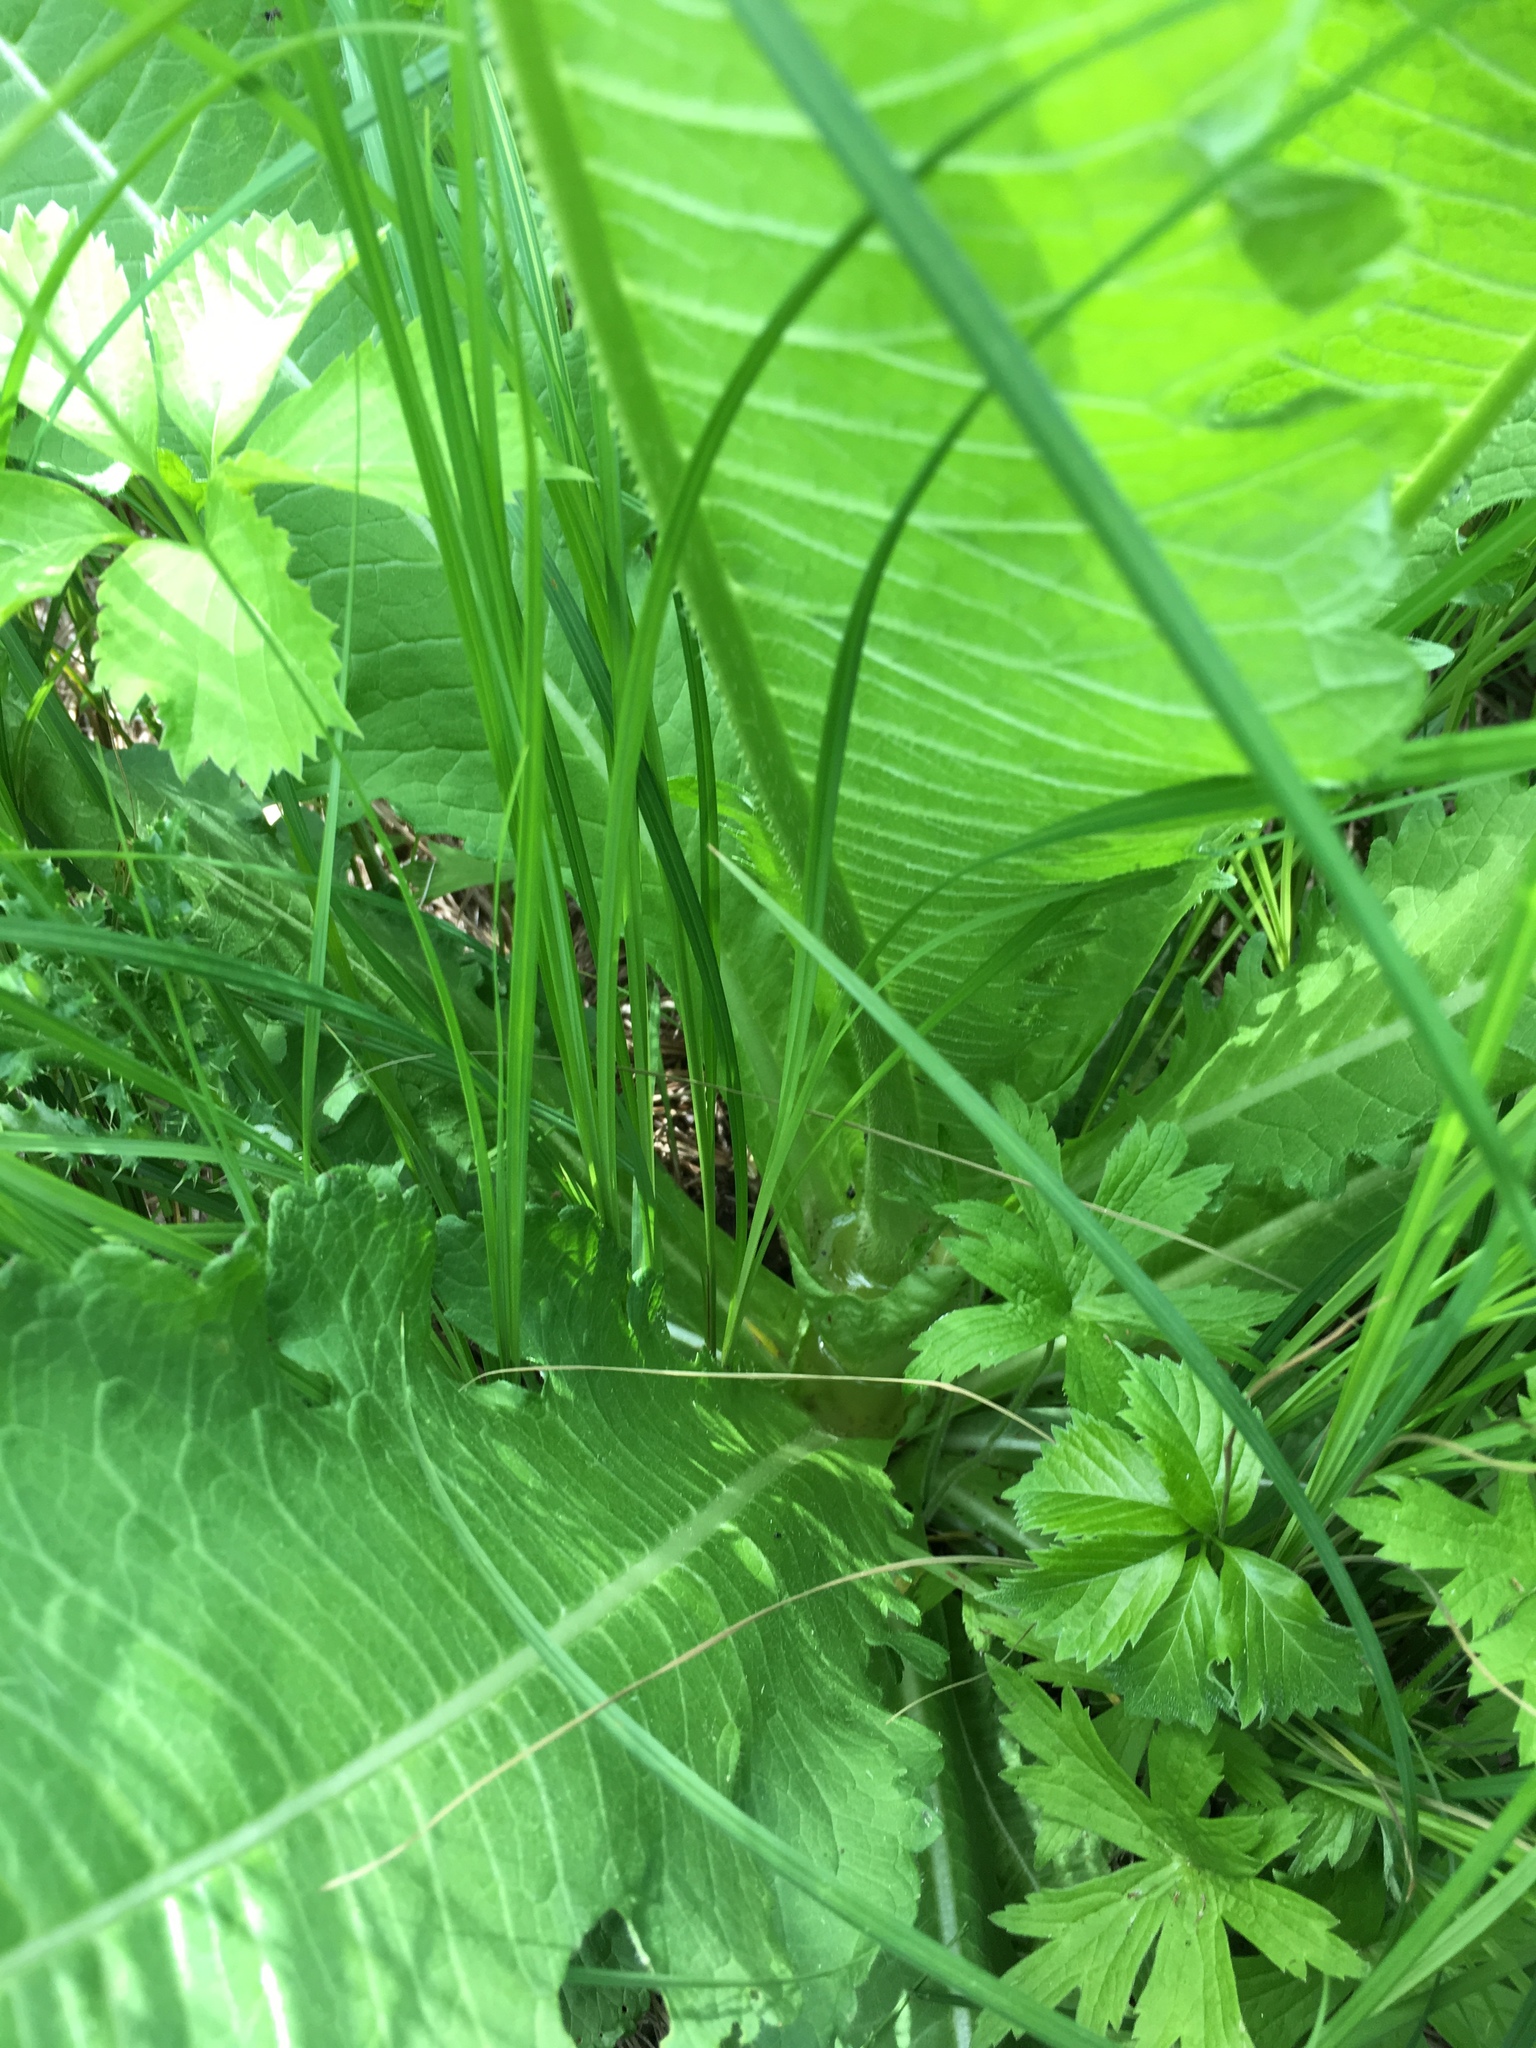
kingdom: Plantae
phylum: Tracheophyta
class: Magnoliopsida
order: Dipsacales
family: Caprifoliaceae
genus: Dipsacus
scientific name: Dipsacus laciniatus
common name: Cut-leaved teasel
